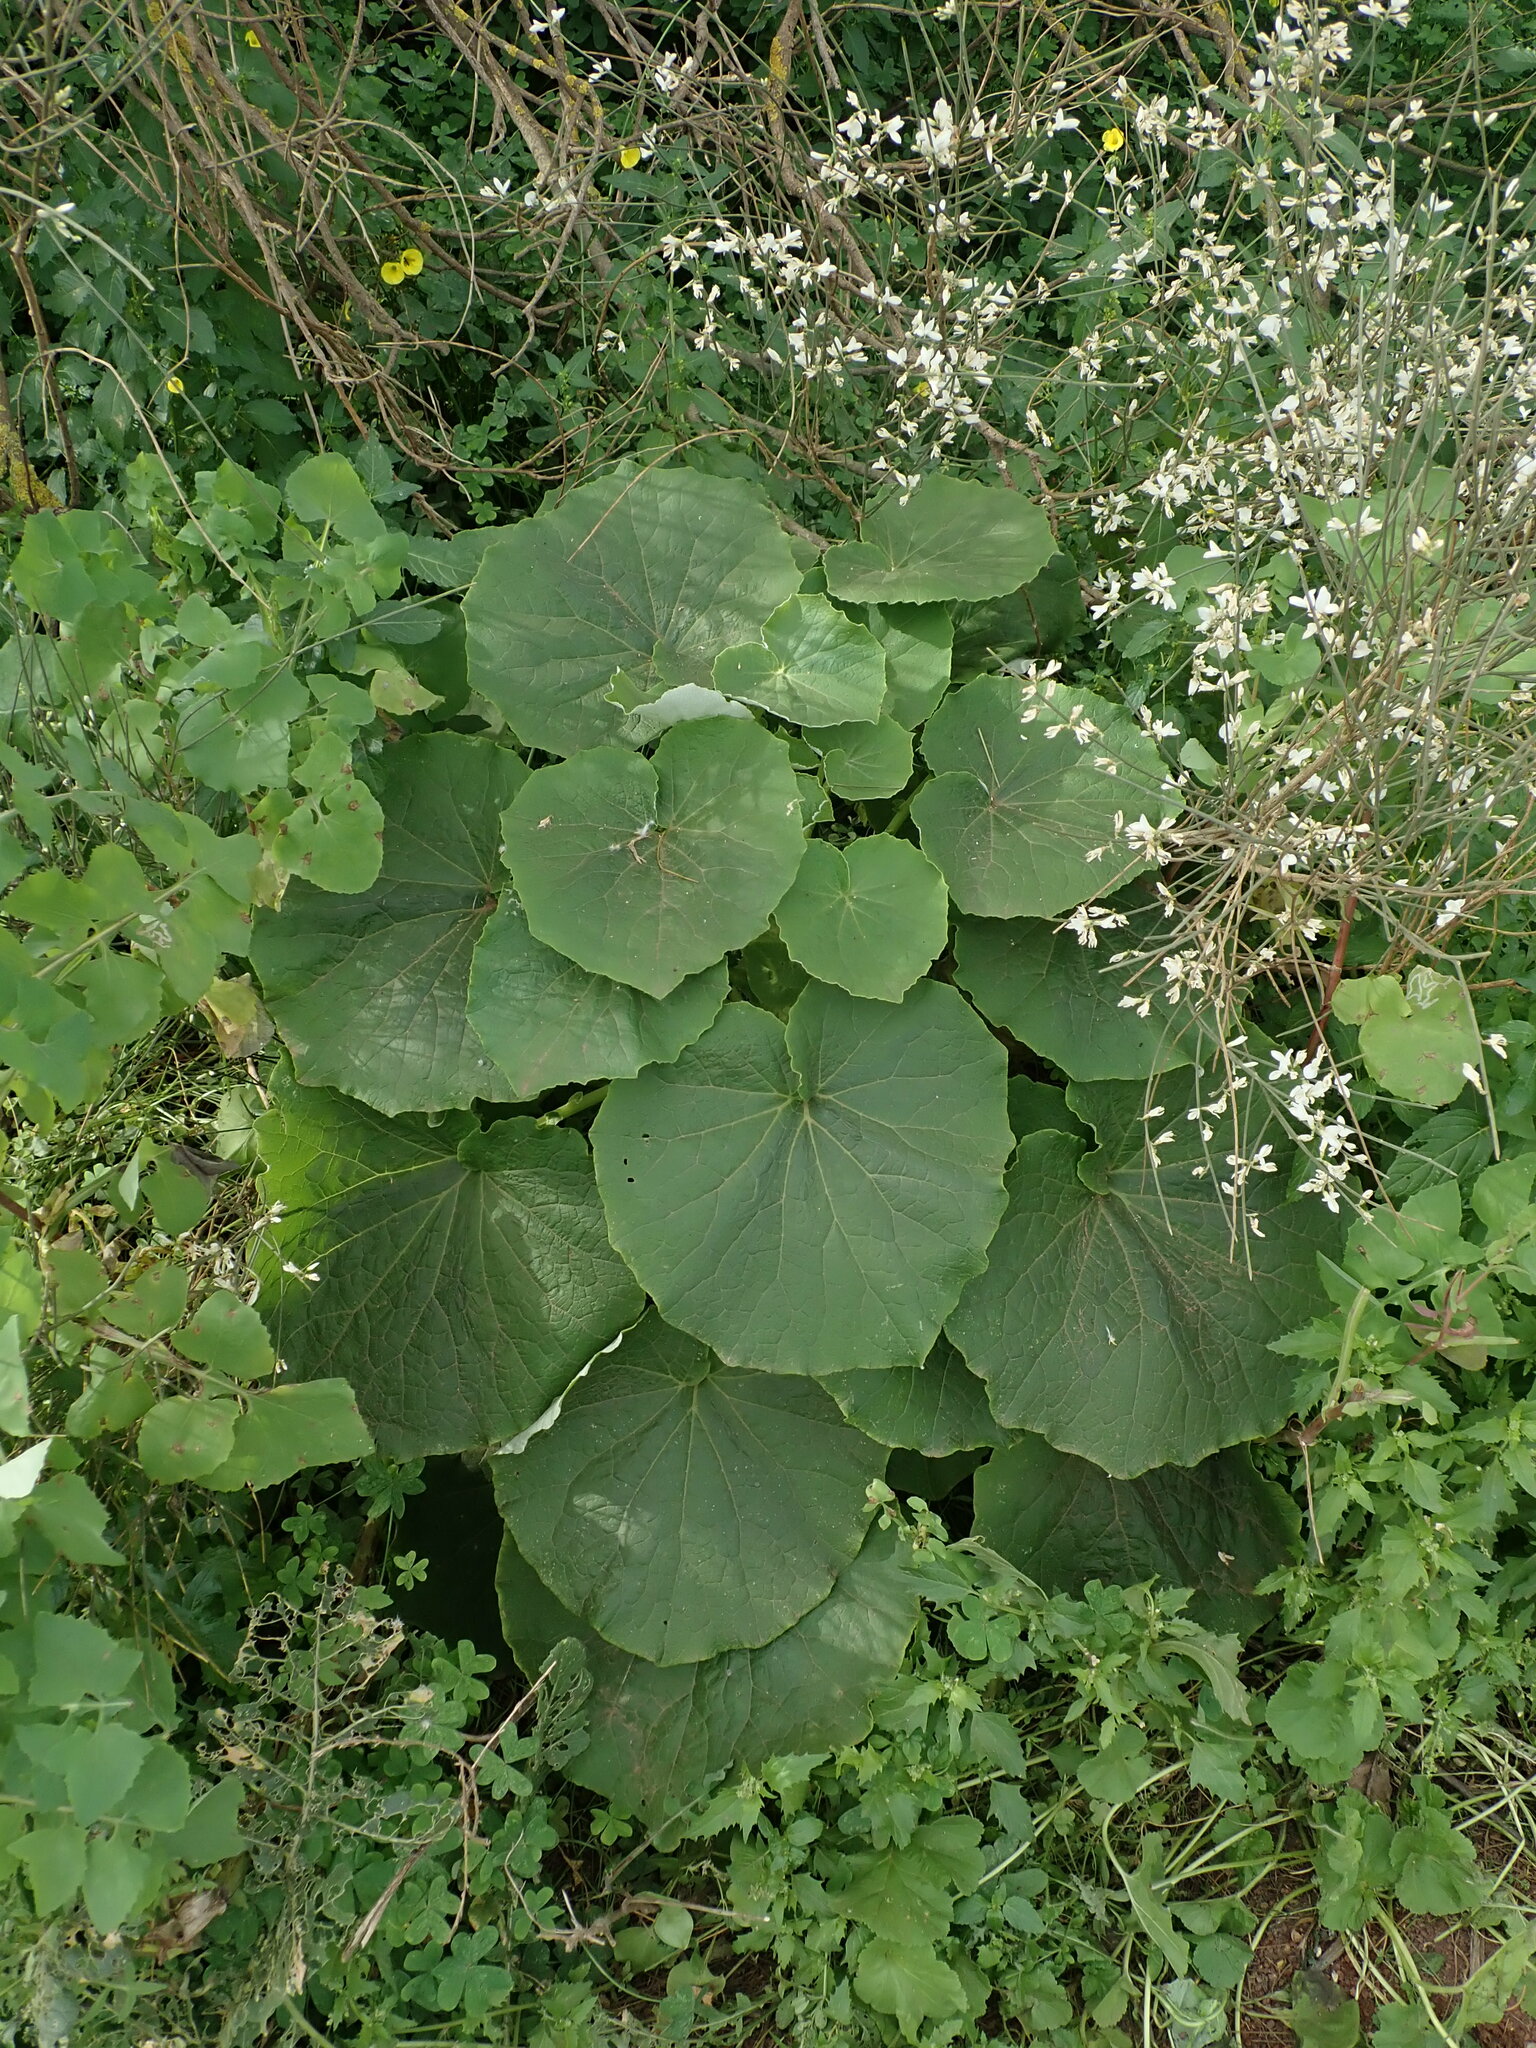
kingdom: Plantae
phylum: Tracheophyta
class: Magnoliopsida
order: Asterales
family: Asteraceae
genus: Pericallis
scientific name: Pericallis webbii
